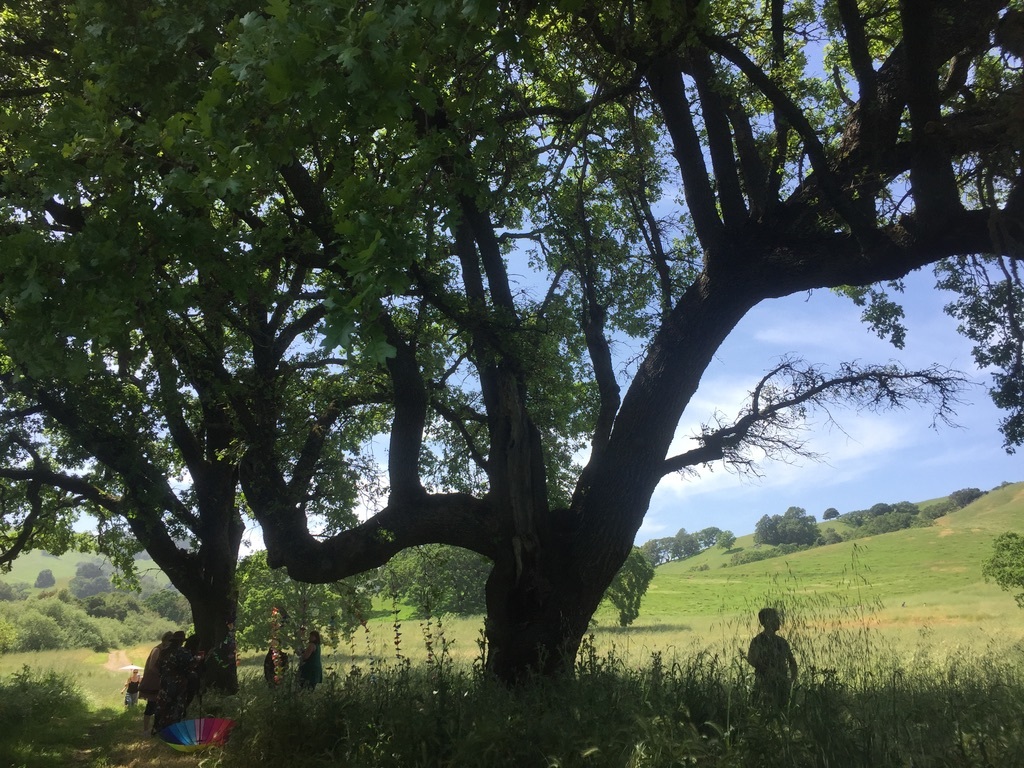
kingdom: Plantae
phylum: Tracheophyta
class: Magnoliopsida
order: Fagales
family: Fagaceae
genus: Quercus
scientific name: Quercus lobata
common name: Valley oak
